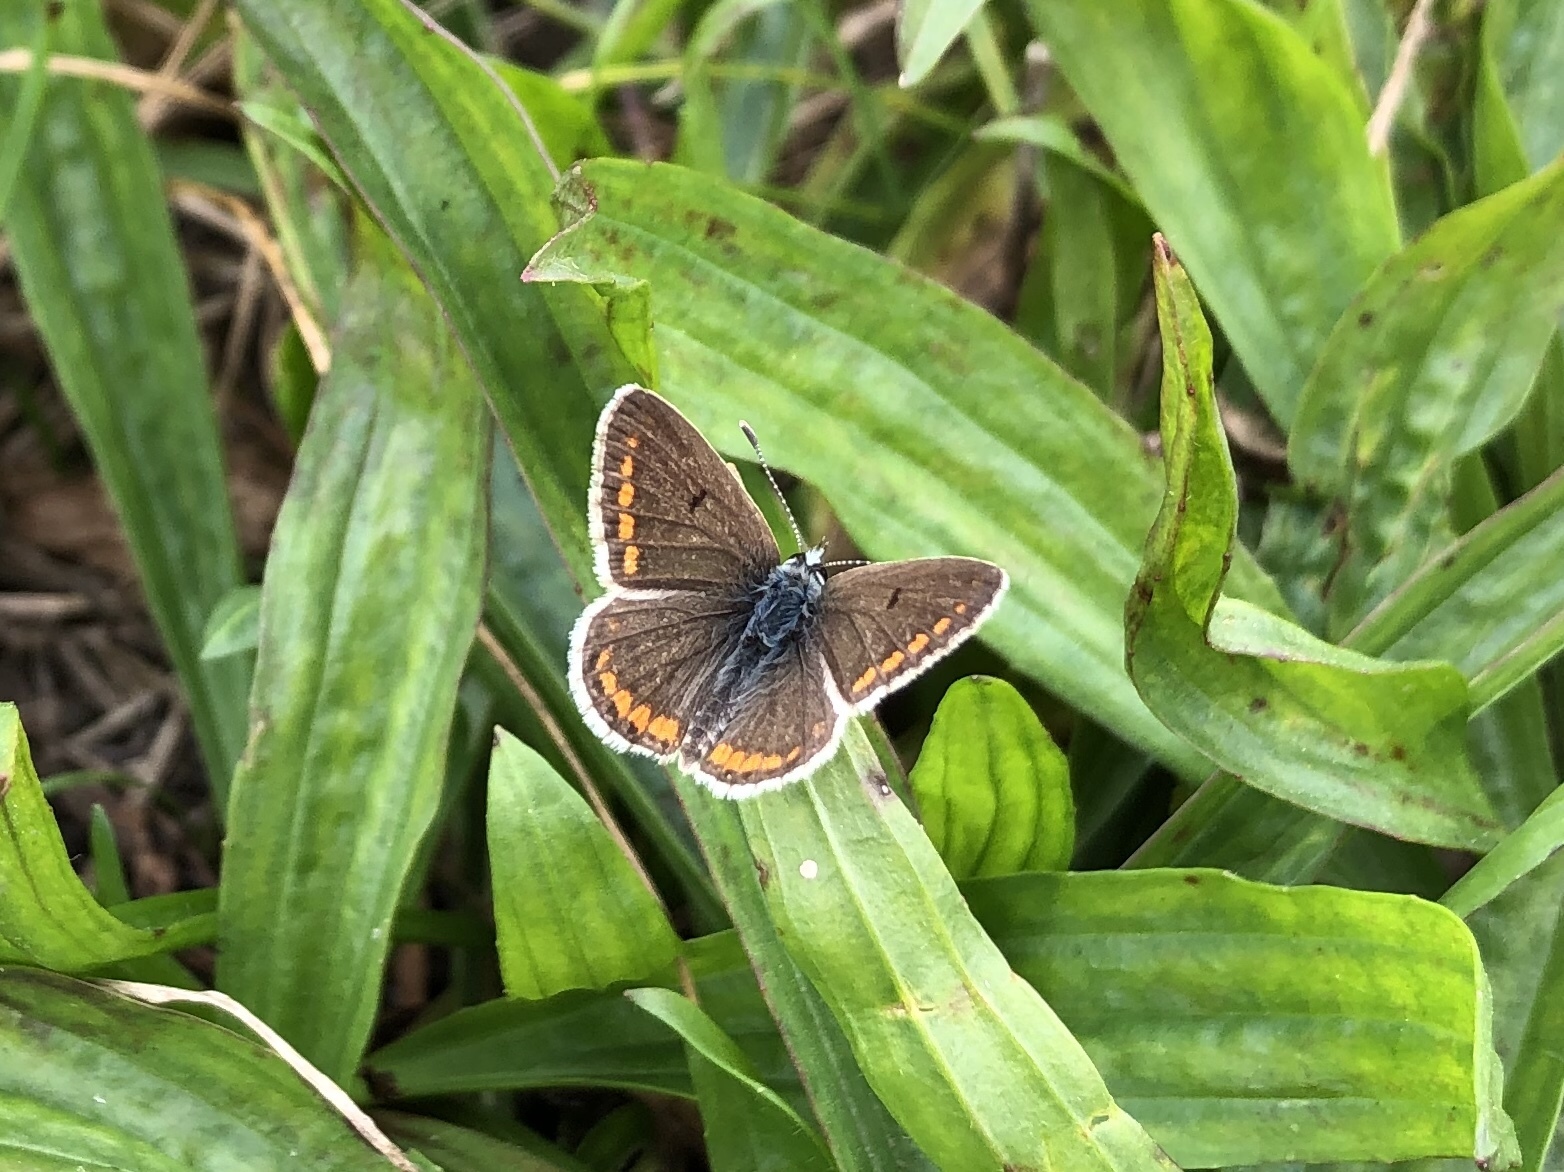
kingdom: Animalia
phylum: Arthropoda
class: Insecta
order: Lepidoptera
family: Lycaenidae
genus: Aricia
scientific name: Aricia agestis
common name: Brown argus
